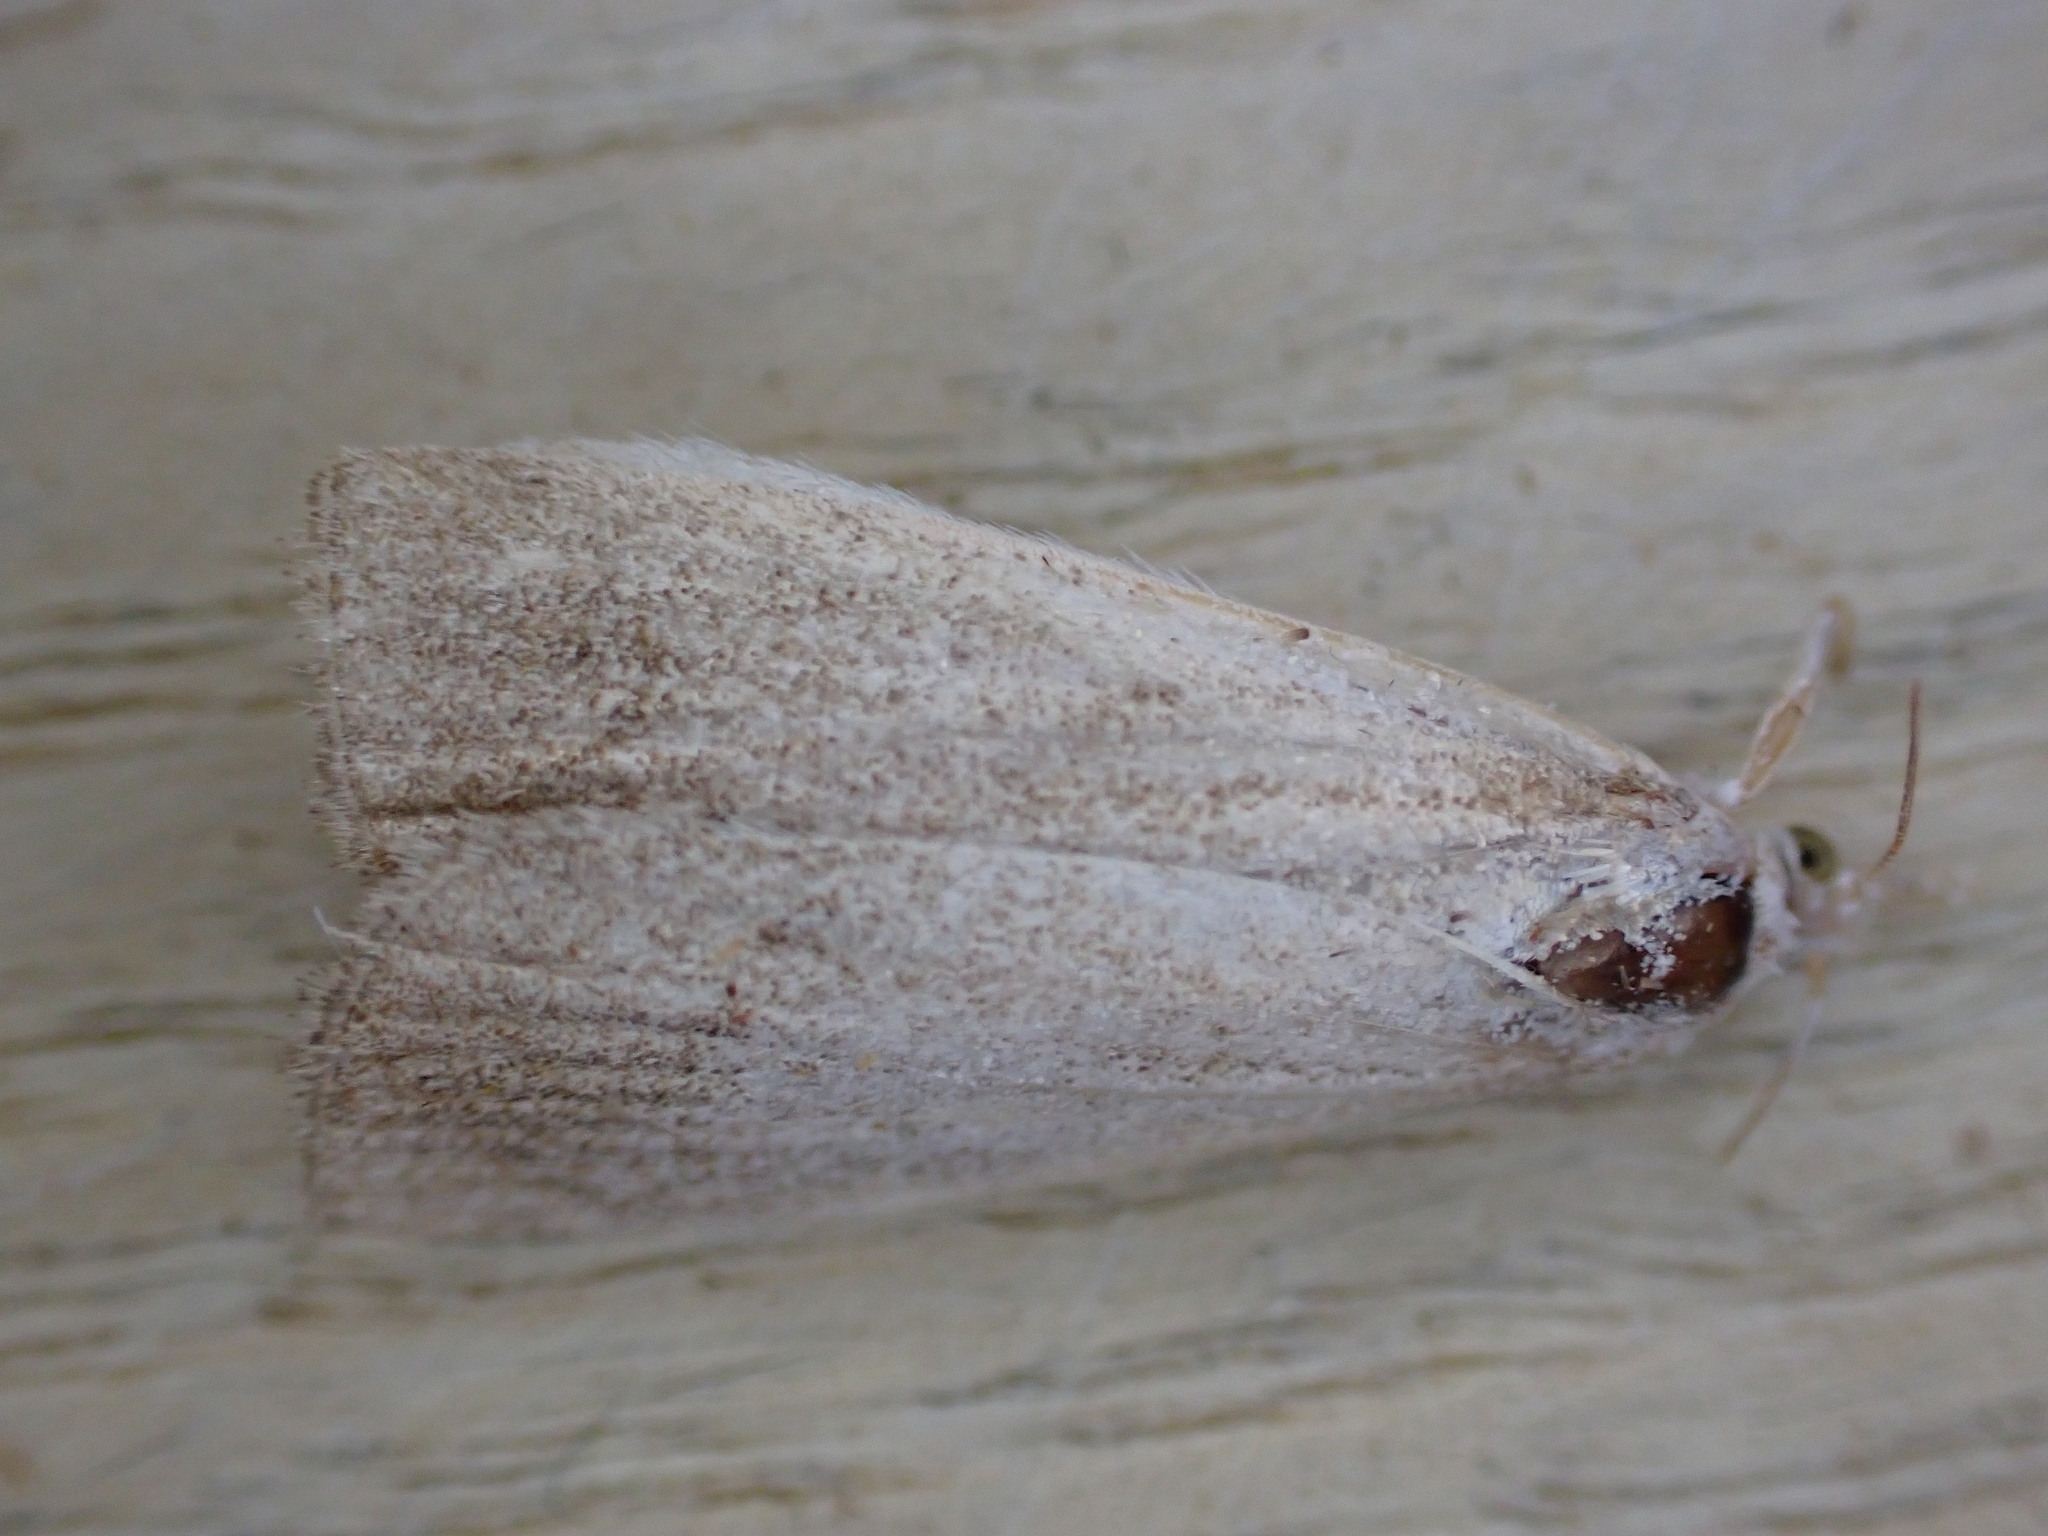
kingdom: Animalia
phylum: Arthropoda
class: Insecta
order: Lepidoptera
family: Crambidae
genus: Calamotropha
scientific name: Calamotropha paludella
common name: Bulrush veneer
